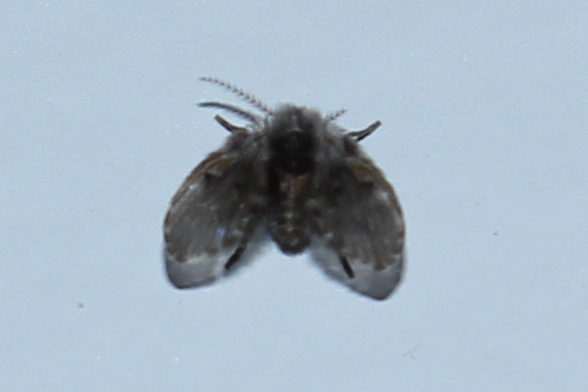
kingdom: Animalia
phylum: Arthropoda
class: Insecta
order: Diptera
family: Psychodidae
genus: Clogmia
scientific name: Clogmia albipunctatus
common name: White-spotted moth fly
